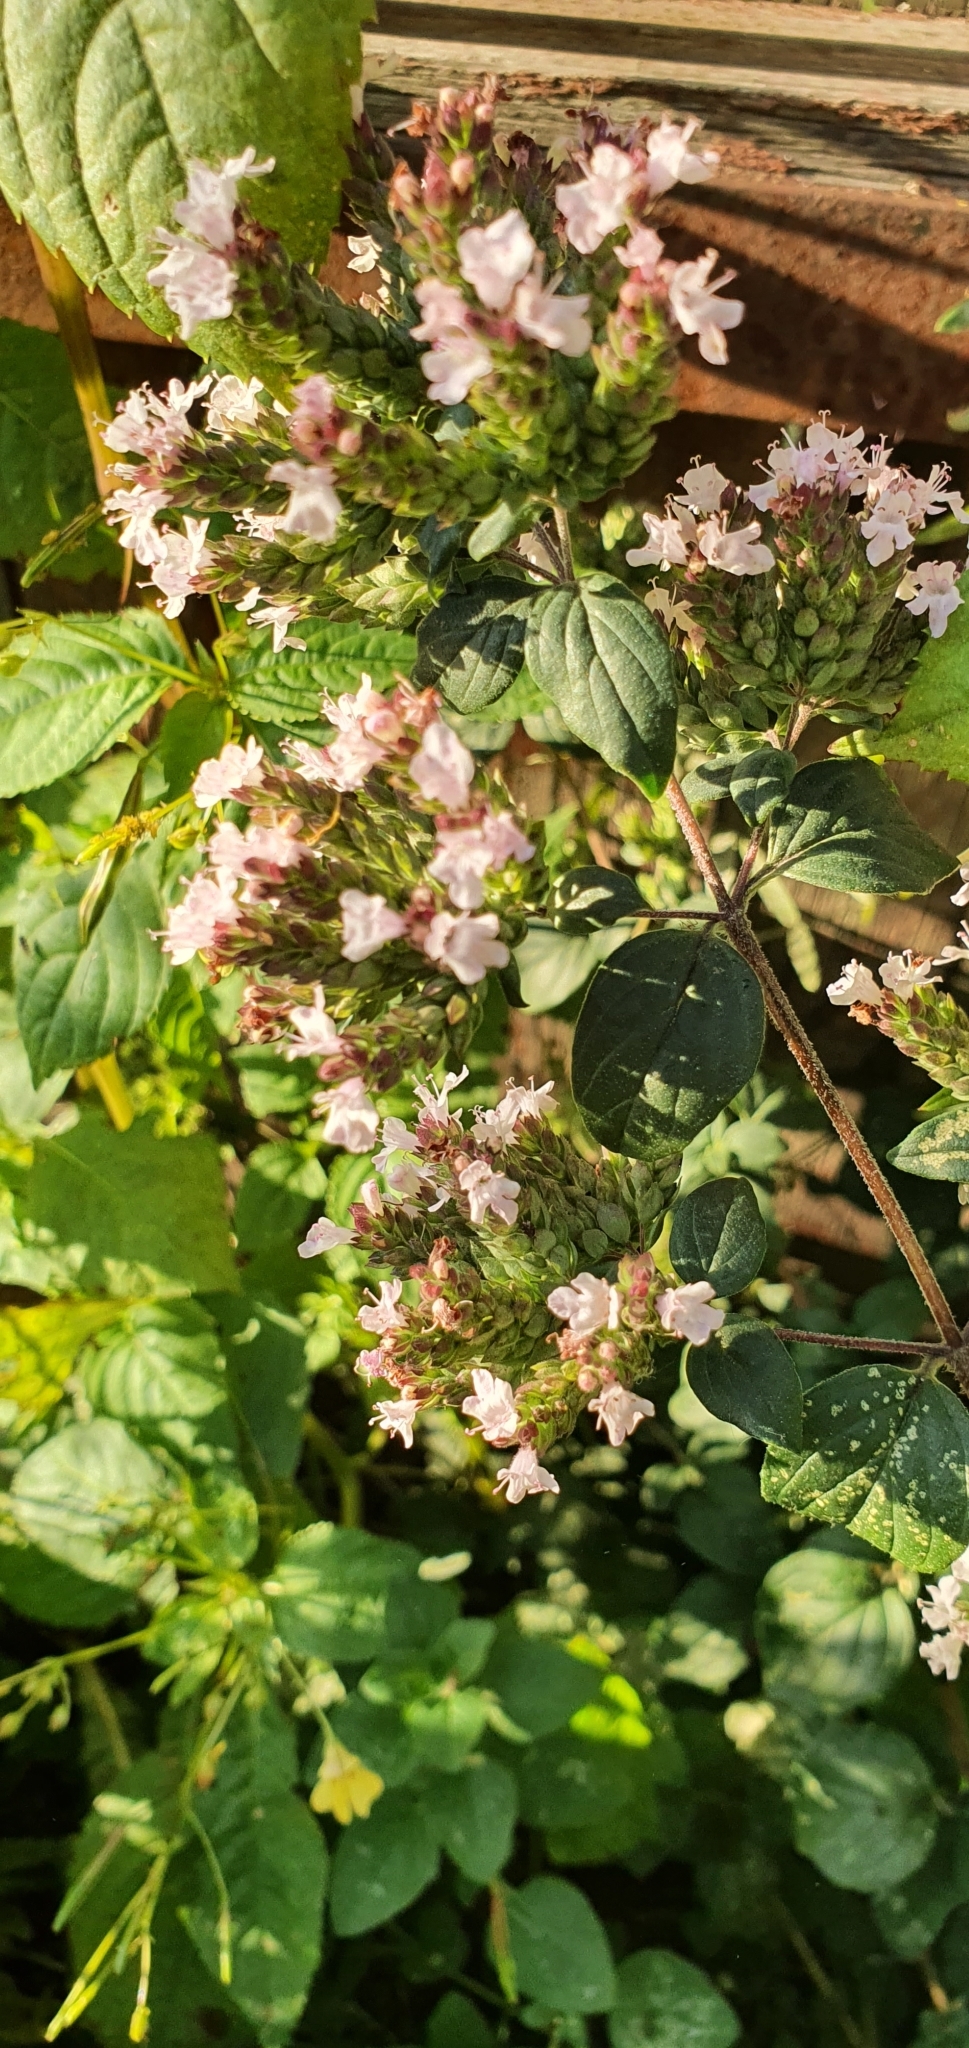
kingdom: Plantae
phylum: Tracheophyta
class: Magnoliopsida
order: Lamiales
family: Lamiaceae
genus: Origanum
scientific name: Origanum vulgare
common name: Wild marjoram
